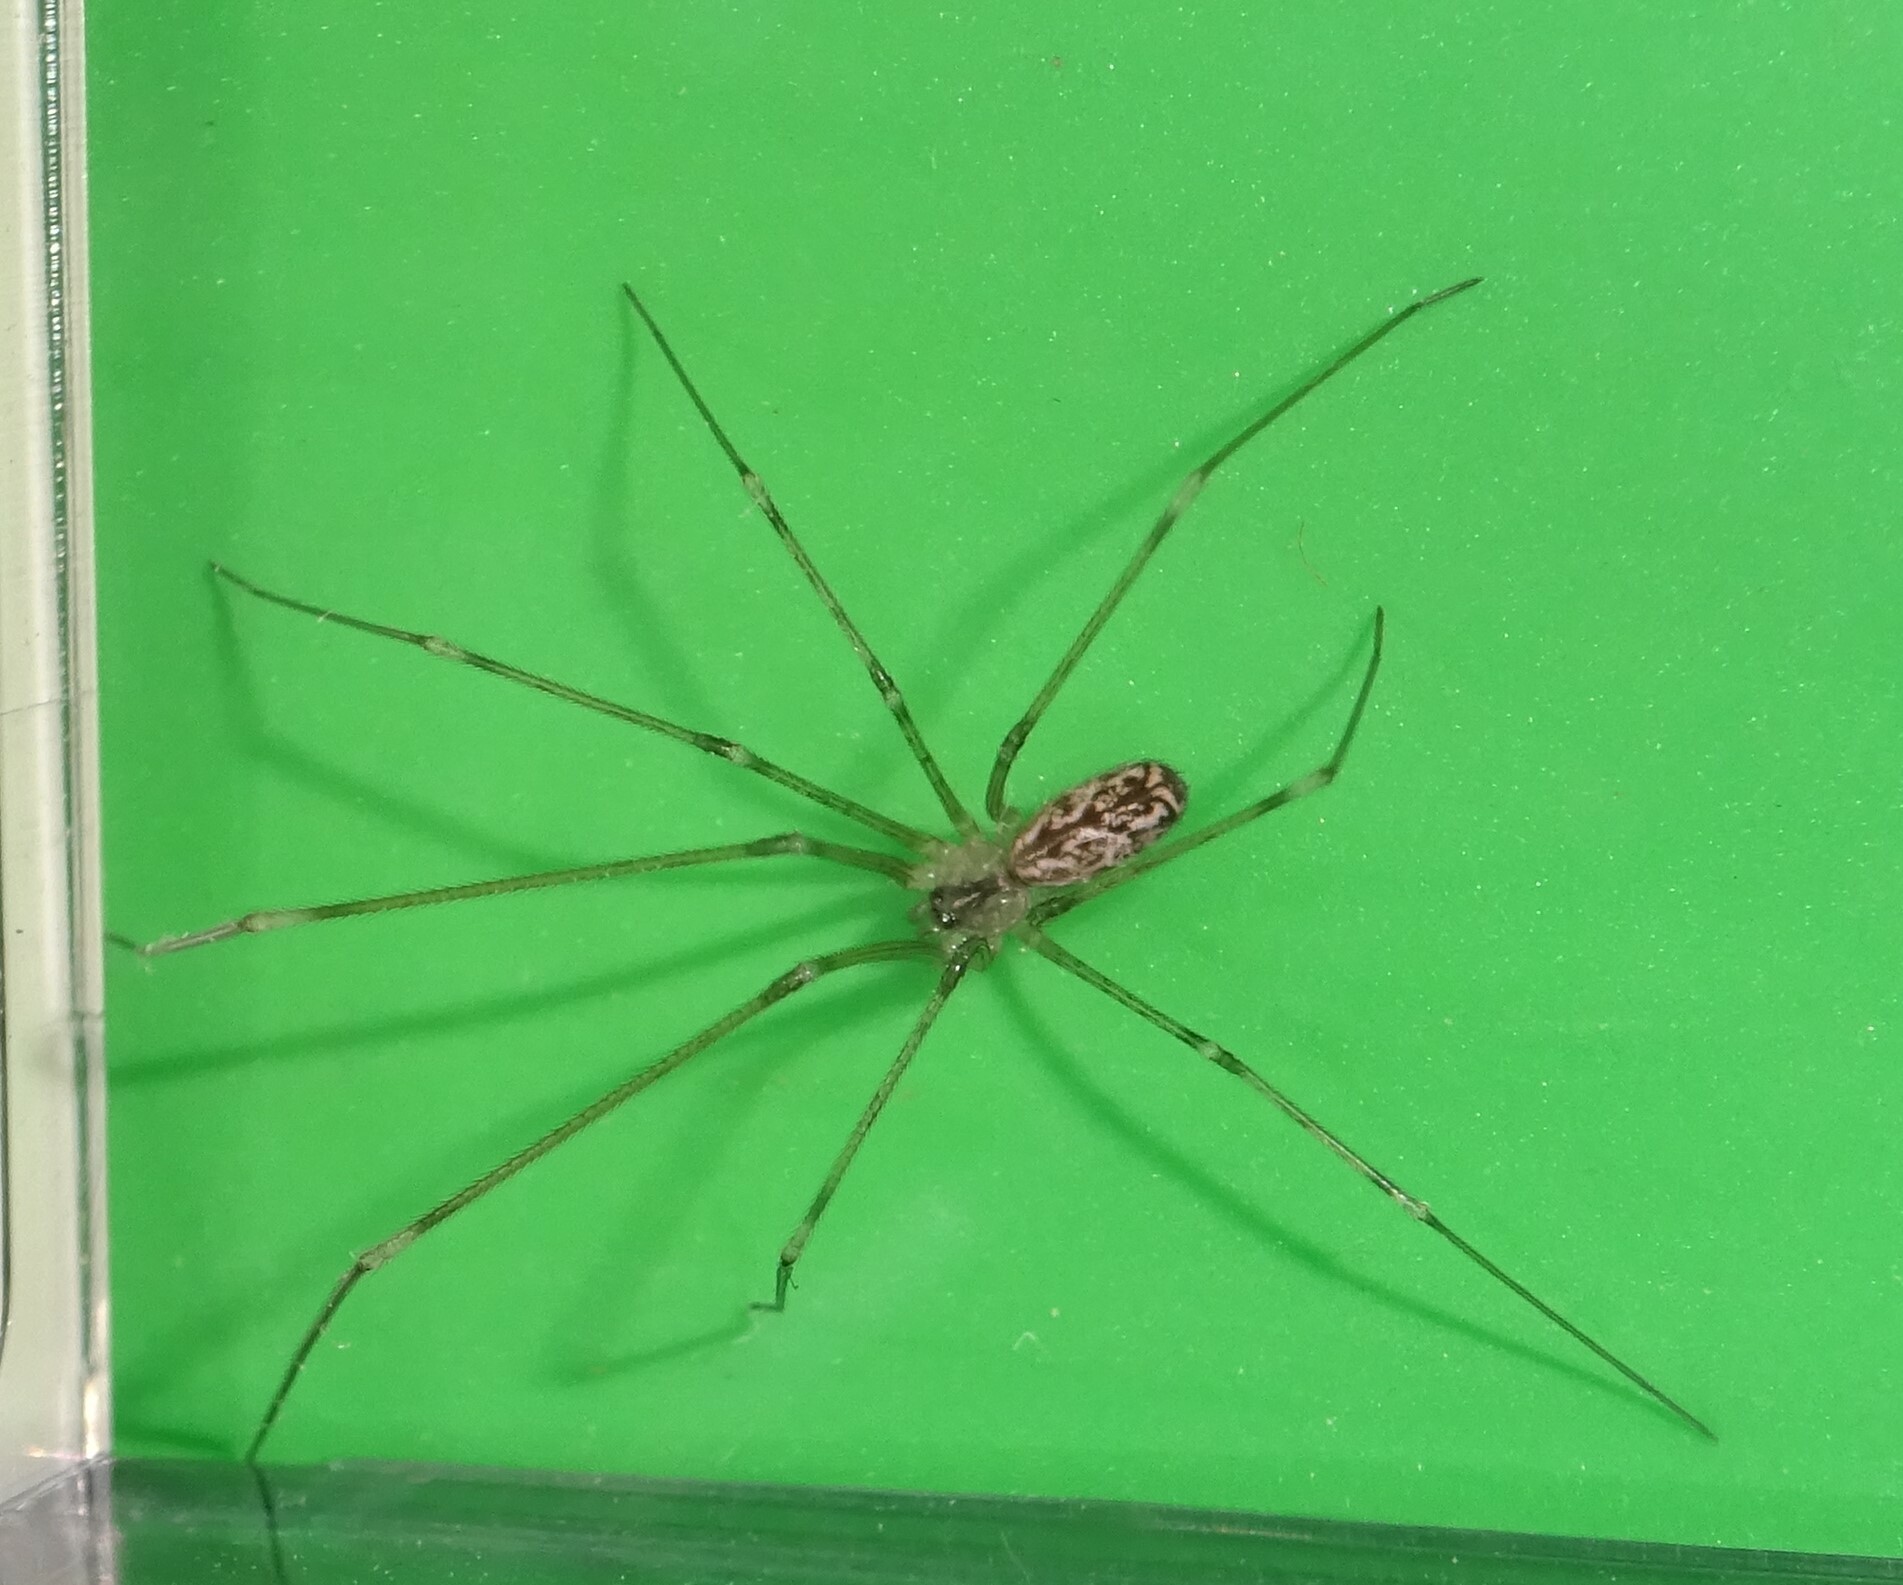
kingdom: Animalia
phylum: Arthropoda
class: Arachnida
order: Araneae
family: Pholcidae
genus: Holocnemus
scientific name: Holocnemus pluchei
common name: Marbled cellar spider
